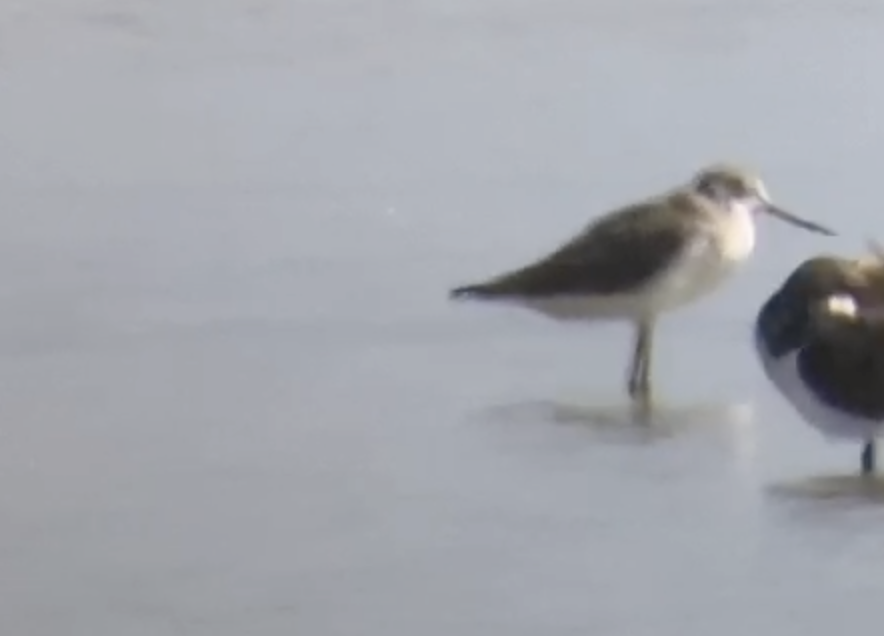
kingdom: Animalia
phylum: Chordata
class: Aves
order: Charadriiformes
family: Scolopacidae
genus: Tringa
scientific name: Tringa nebularia
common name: Common greenshank
